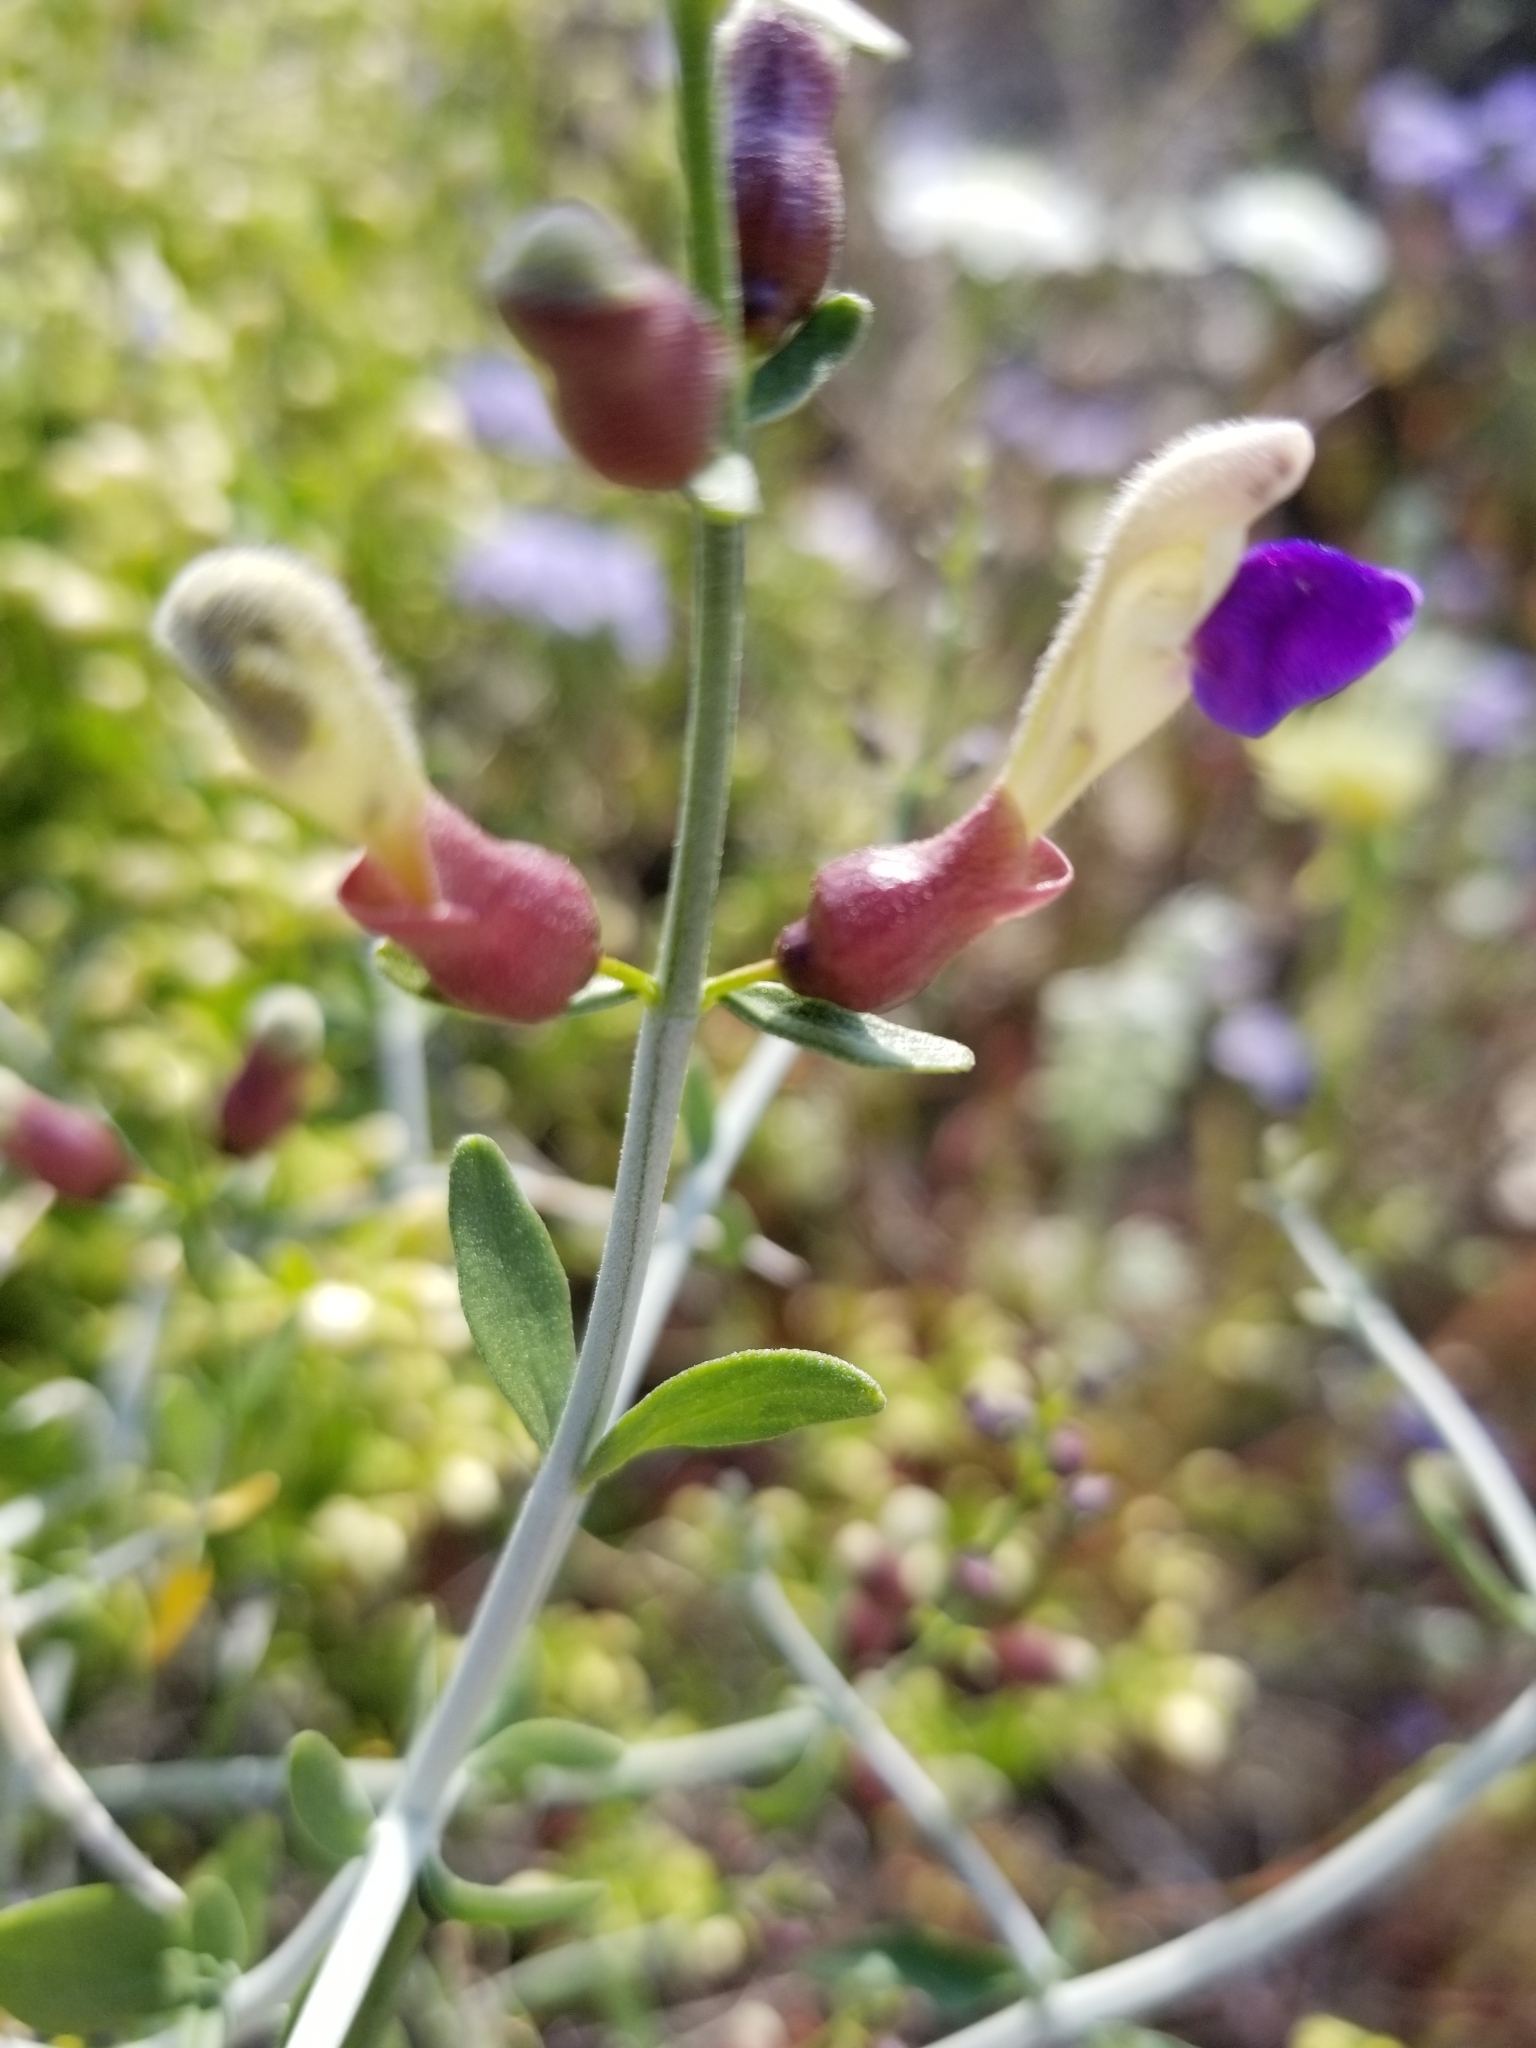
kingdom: Plantae
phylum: Tracheophyta
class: Magnoliopsida
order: Lamiales
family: Lamiaceae
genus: Scutellaria
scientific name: Scutellaria mexicana
